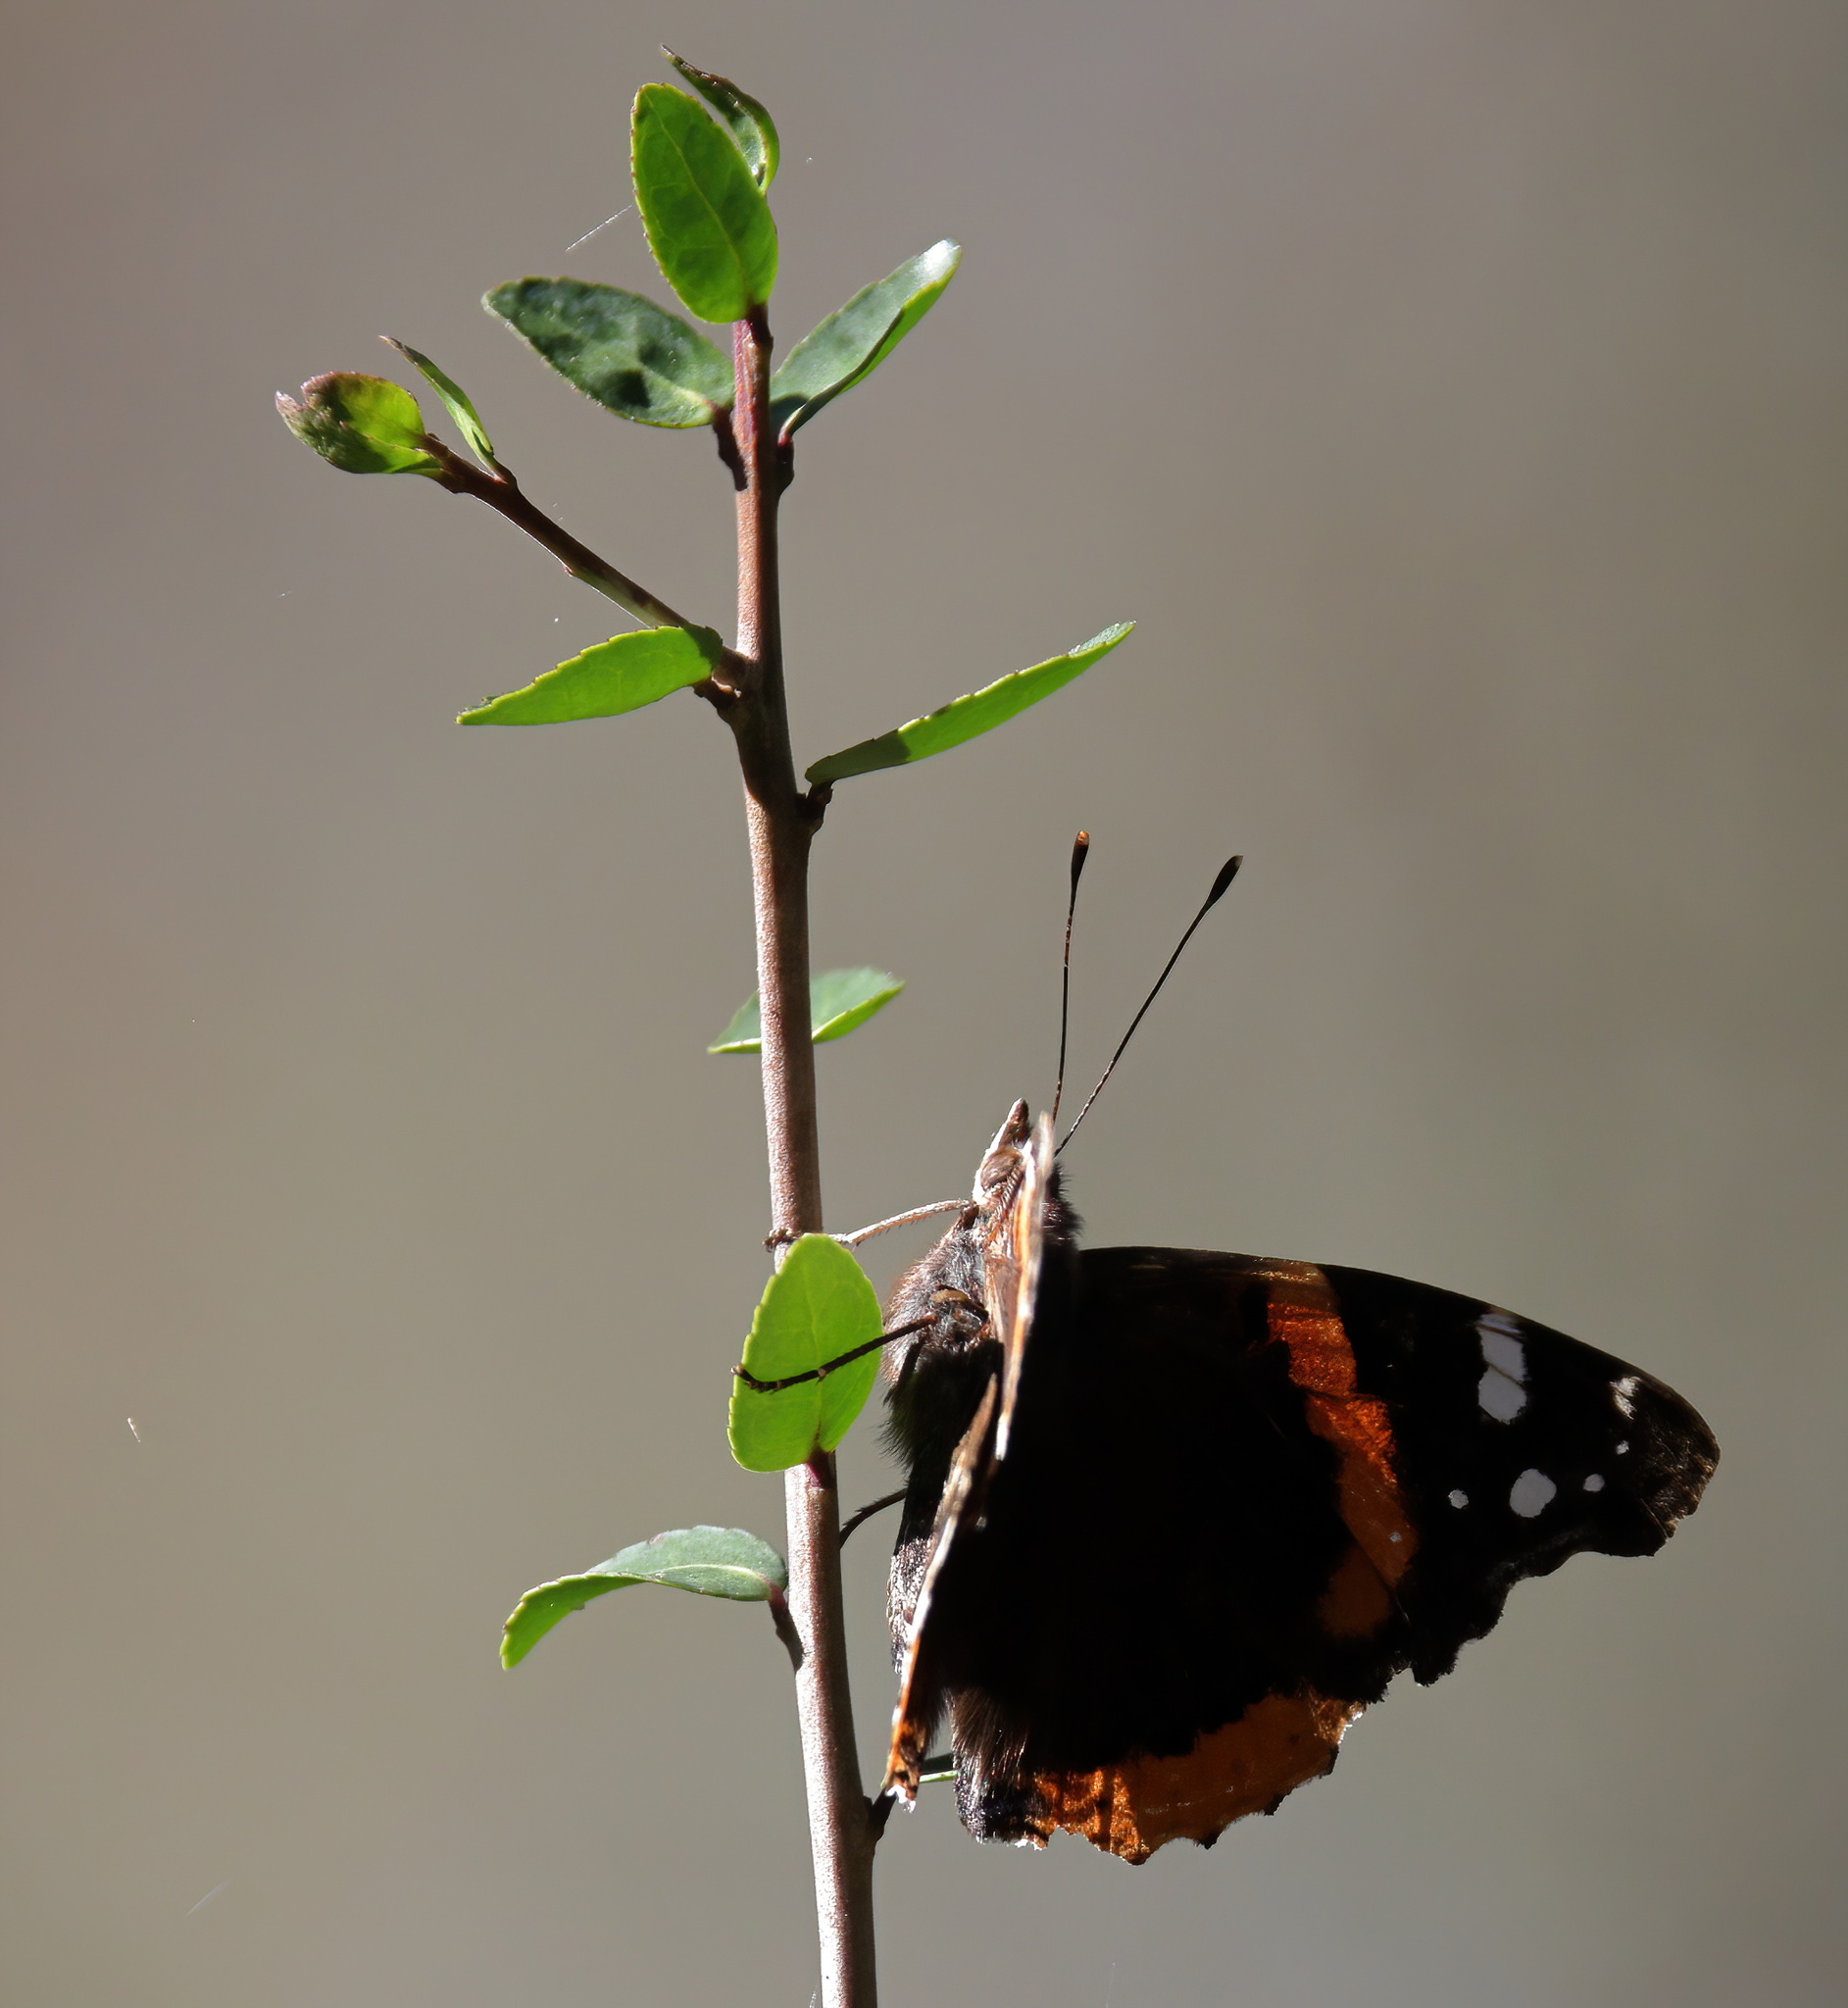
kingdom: Animalia
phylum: Arthropoda
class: Insecta
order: Lepidoptera
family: Nymphalidae
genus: Vanessa
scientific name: Vanessa atalanta
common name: Red admiral
